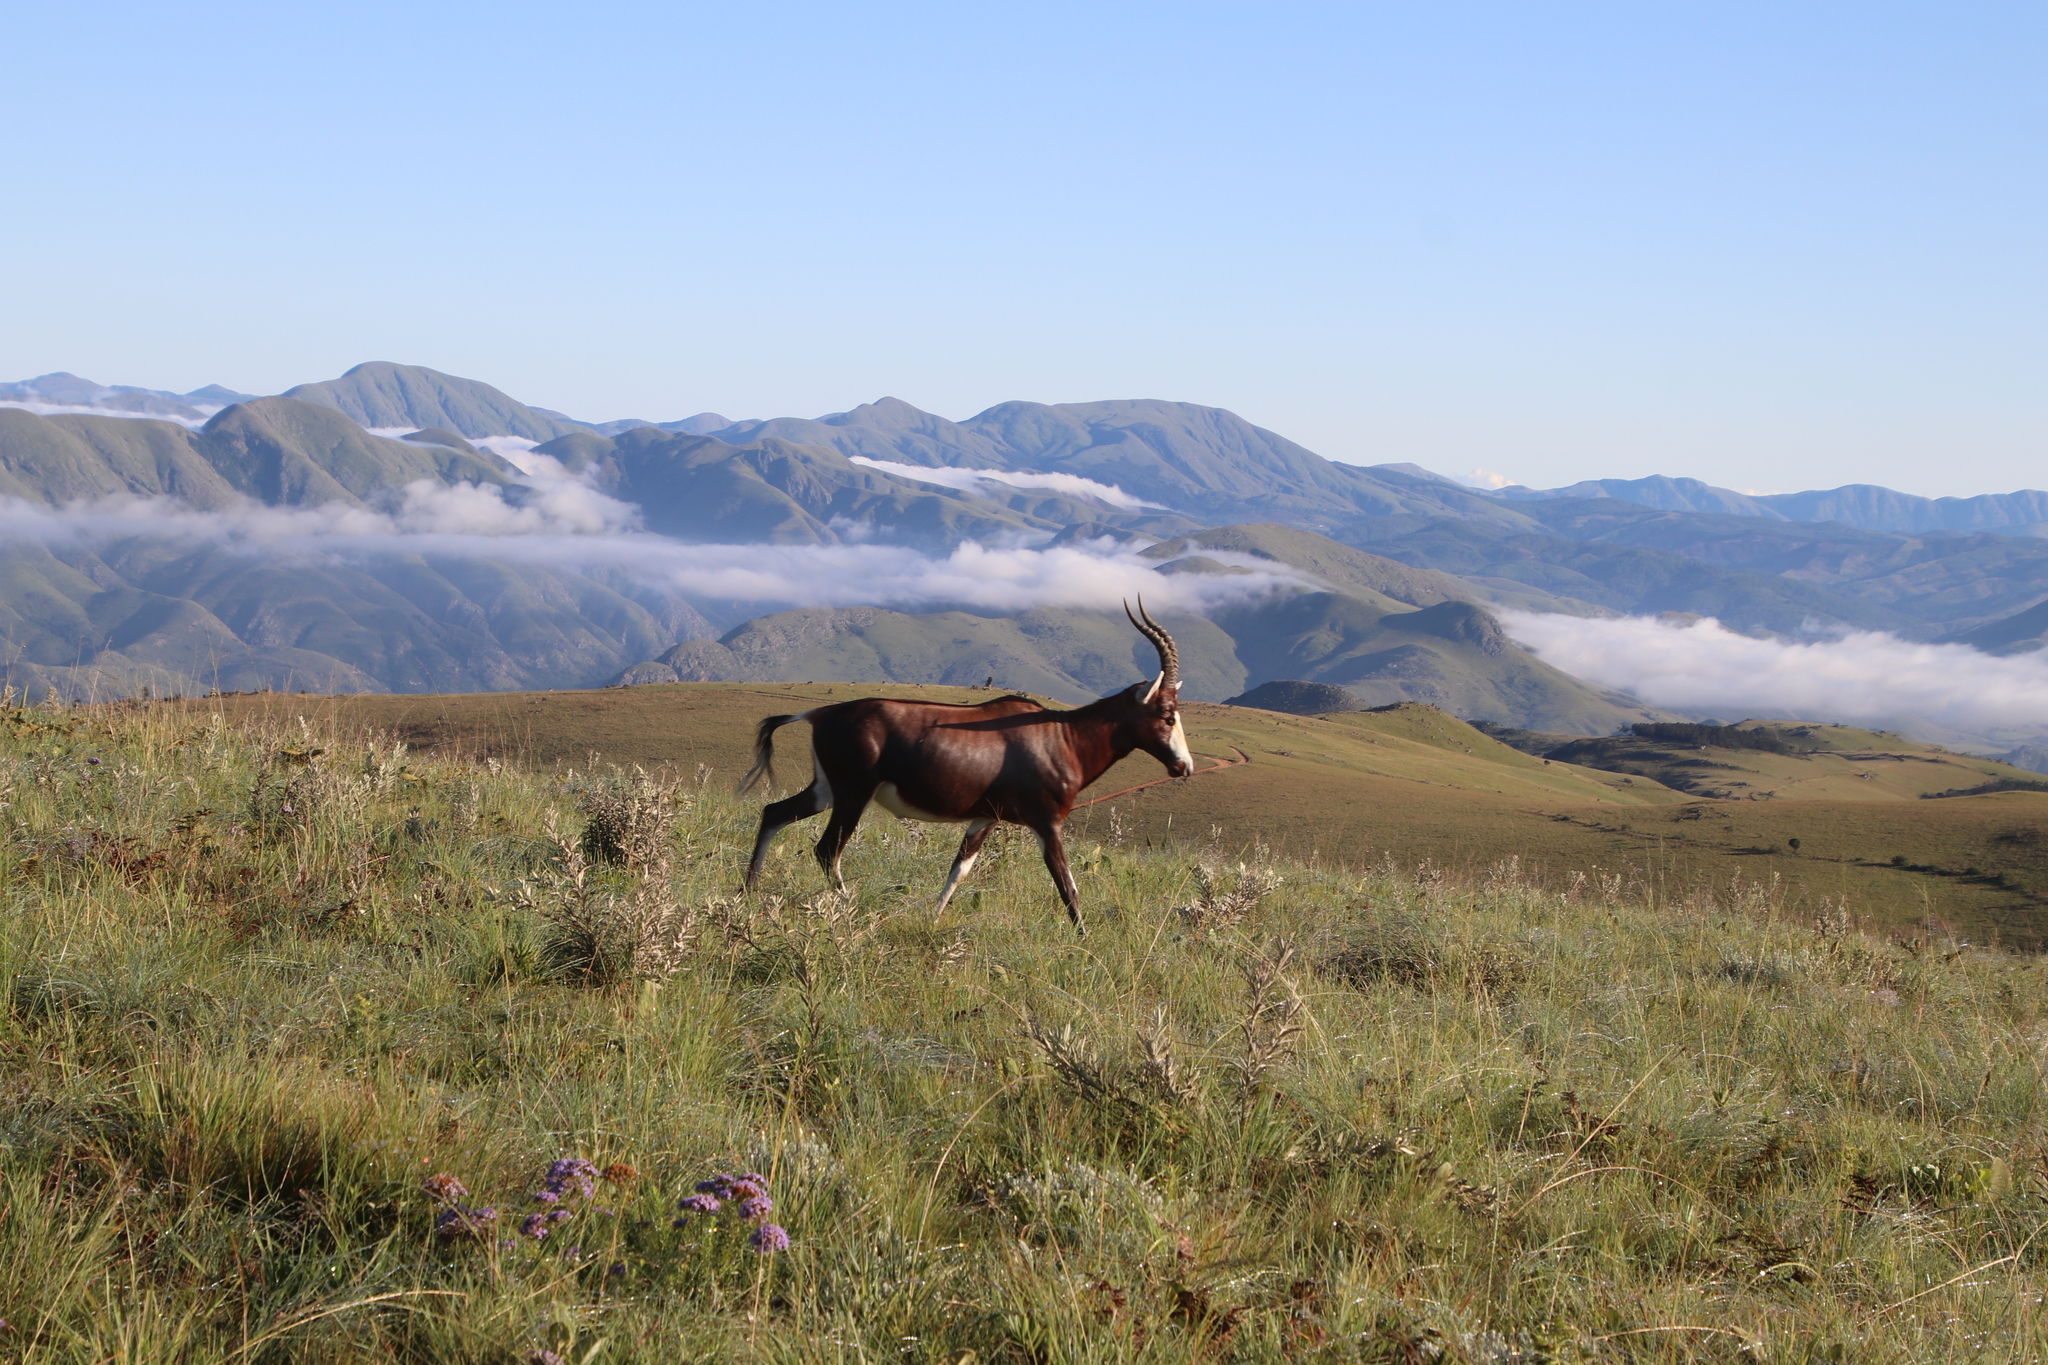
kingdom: Animalia
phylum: Chordata
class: Mammalia
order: Artiodactyla
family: Bovidae
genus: Damaliscus
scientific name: Damaliscus pygargus
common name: Bontebok
